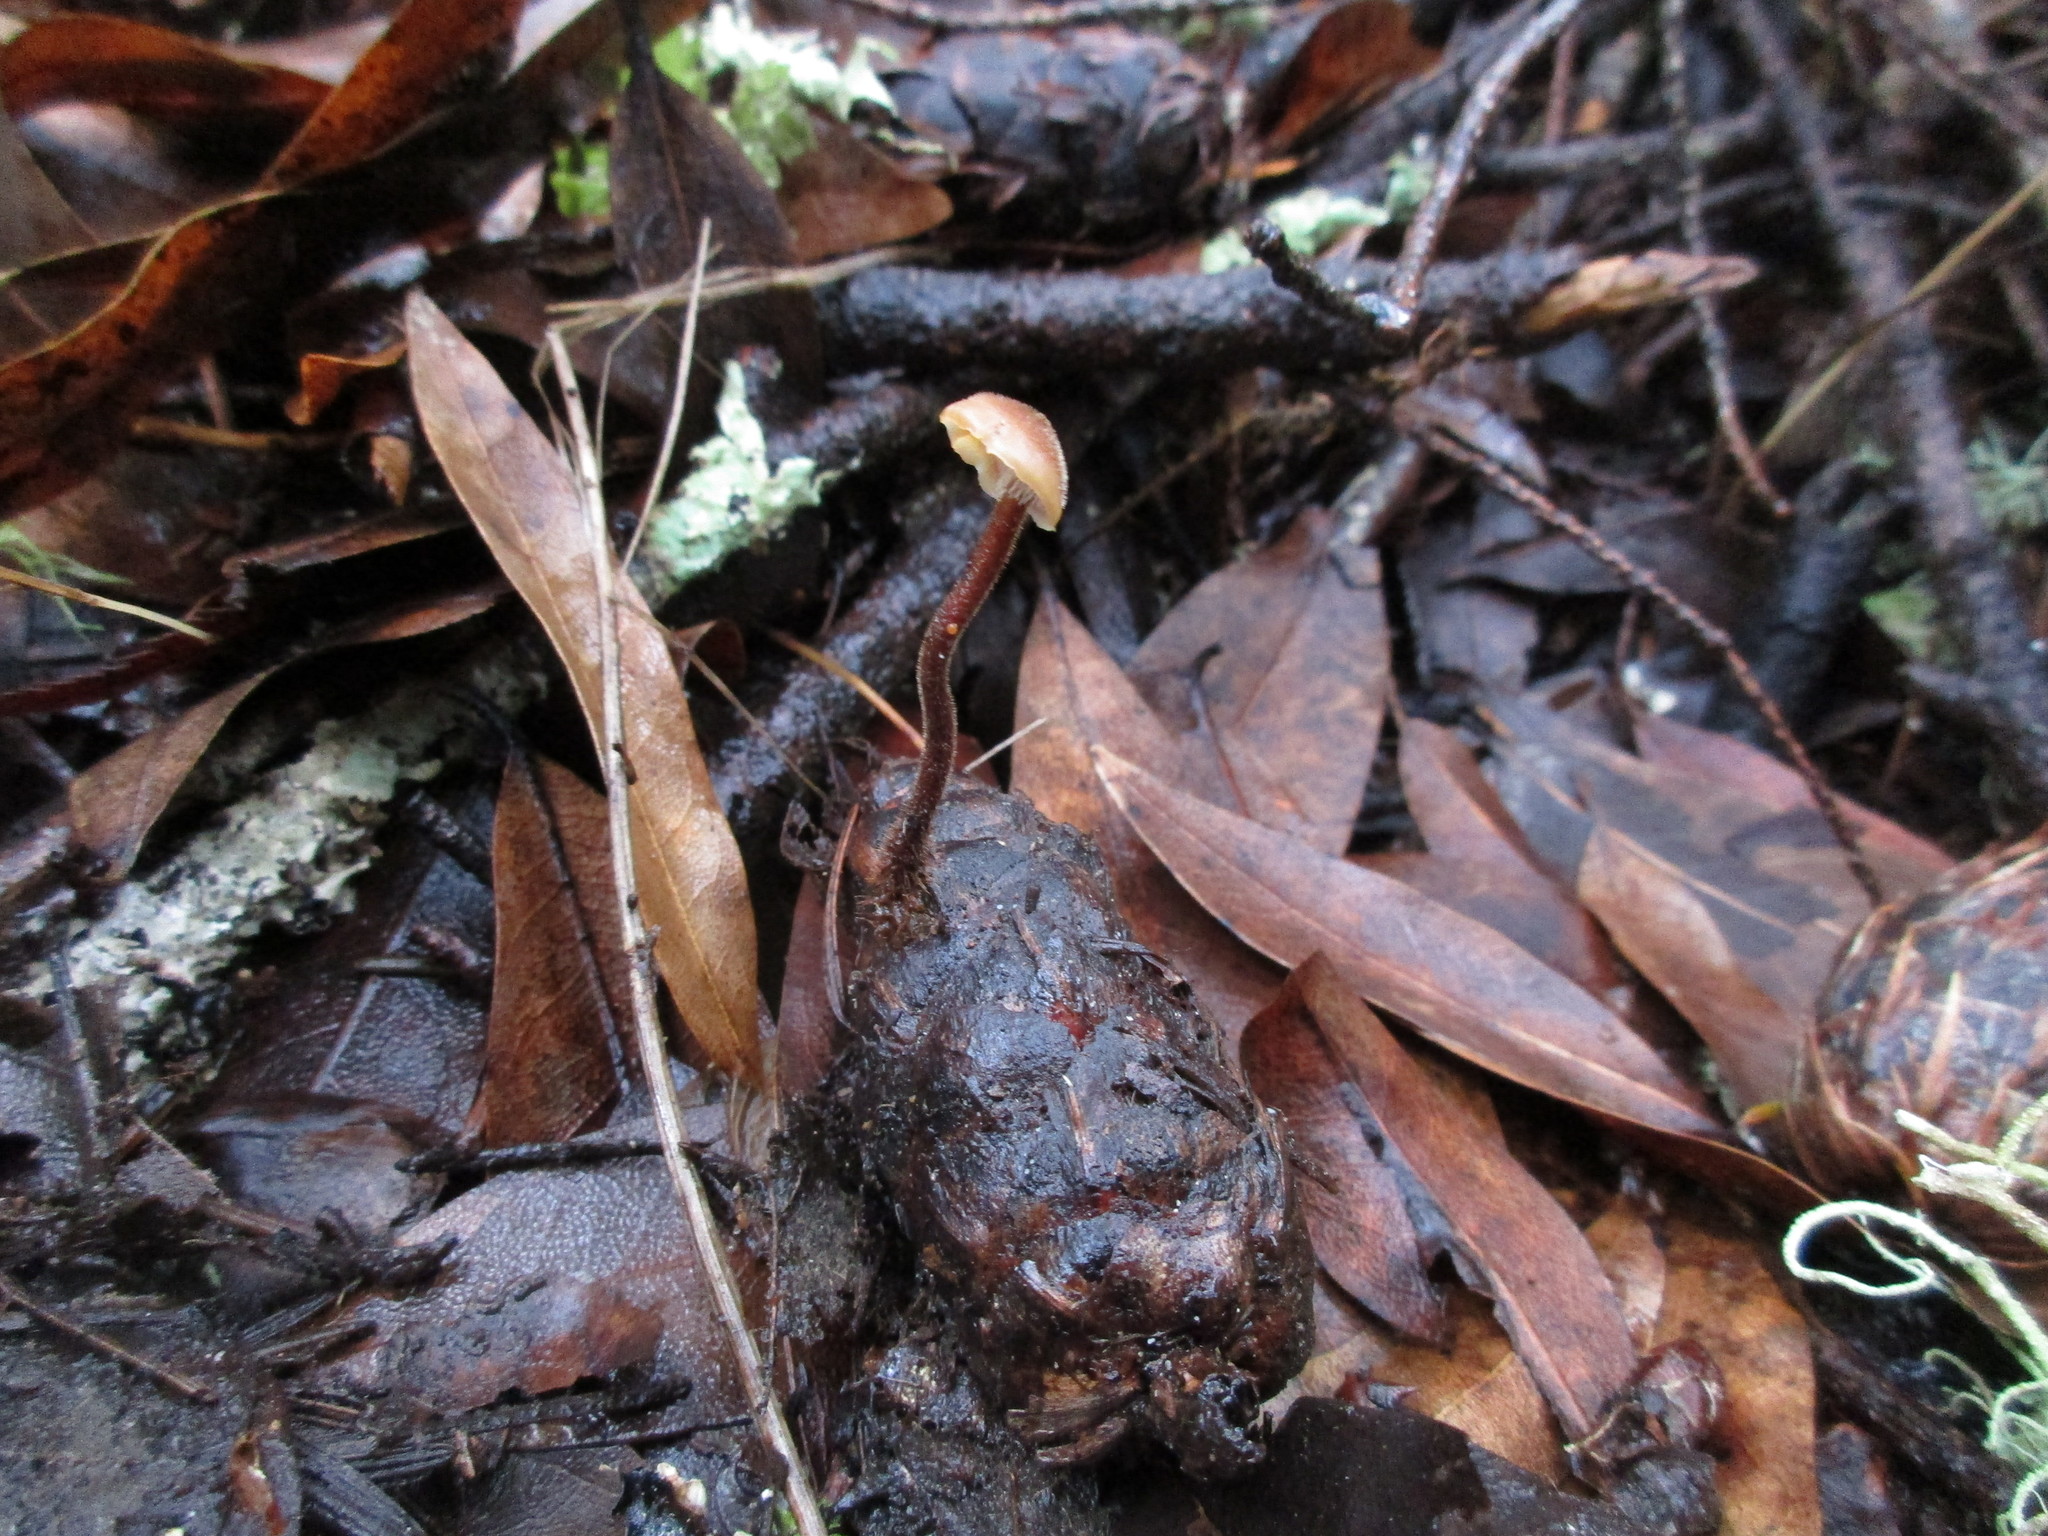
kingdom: Fungi
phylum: Basidiomycota
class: Agaricomycetes
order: Russulales
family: Auriscalpiaceae
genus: Auriscalpium
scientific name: Auriscalpium vulgare
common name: Earpick fungus
